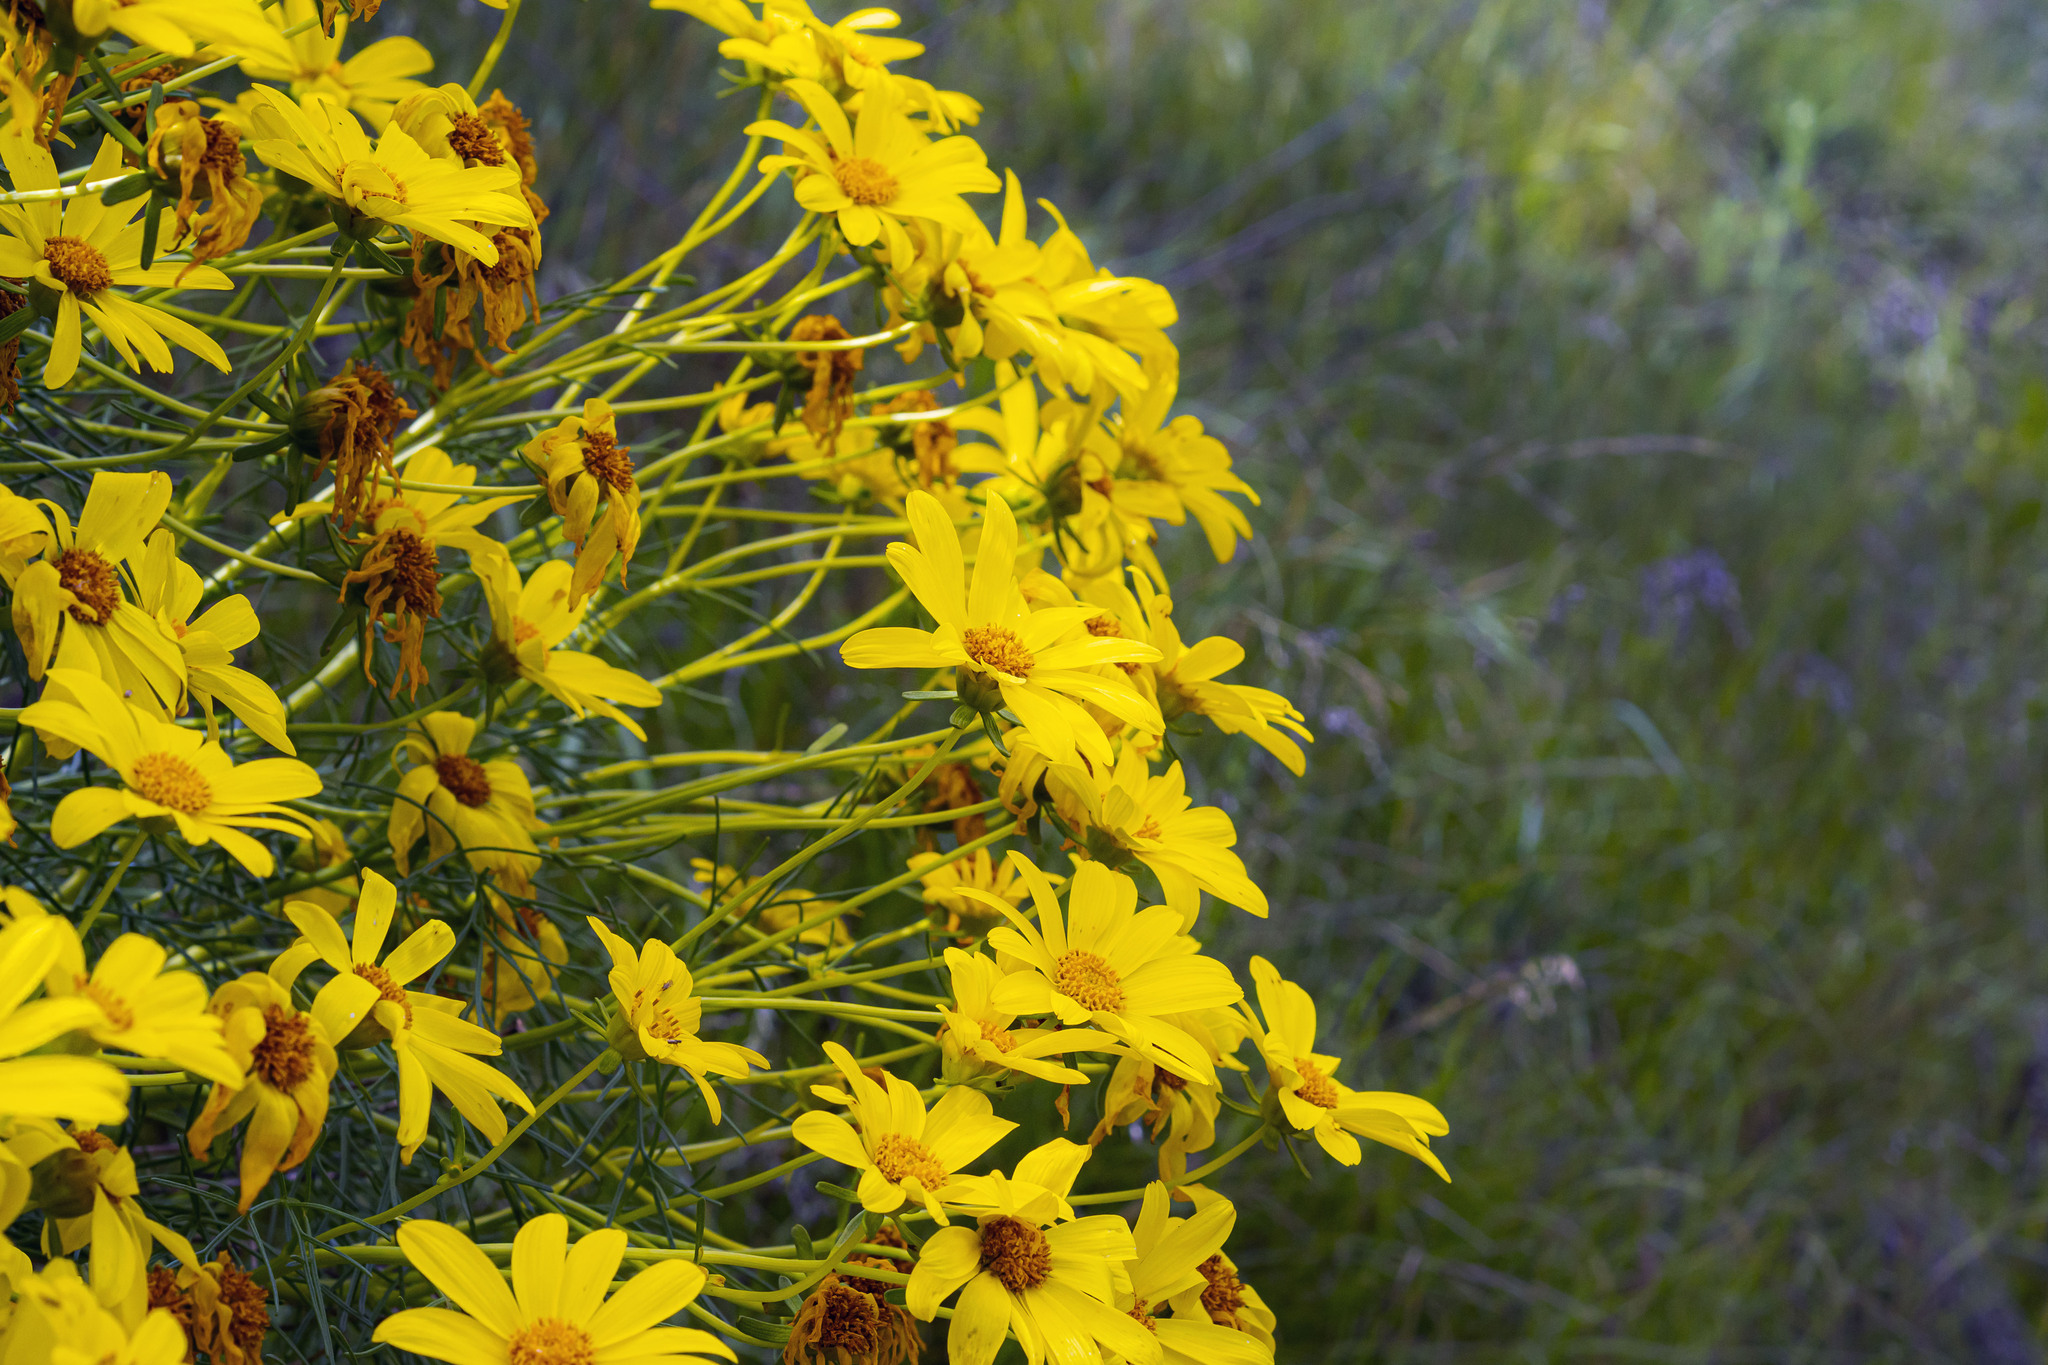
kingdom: Plantae
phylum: Tracheophyta
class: Magnoliopsida
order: Asterales
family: Asteraceae
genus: Coreopsis
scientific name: Coreopsis gigantea
